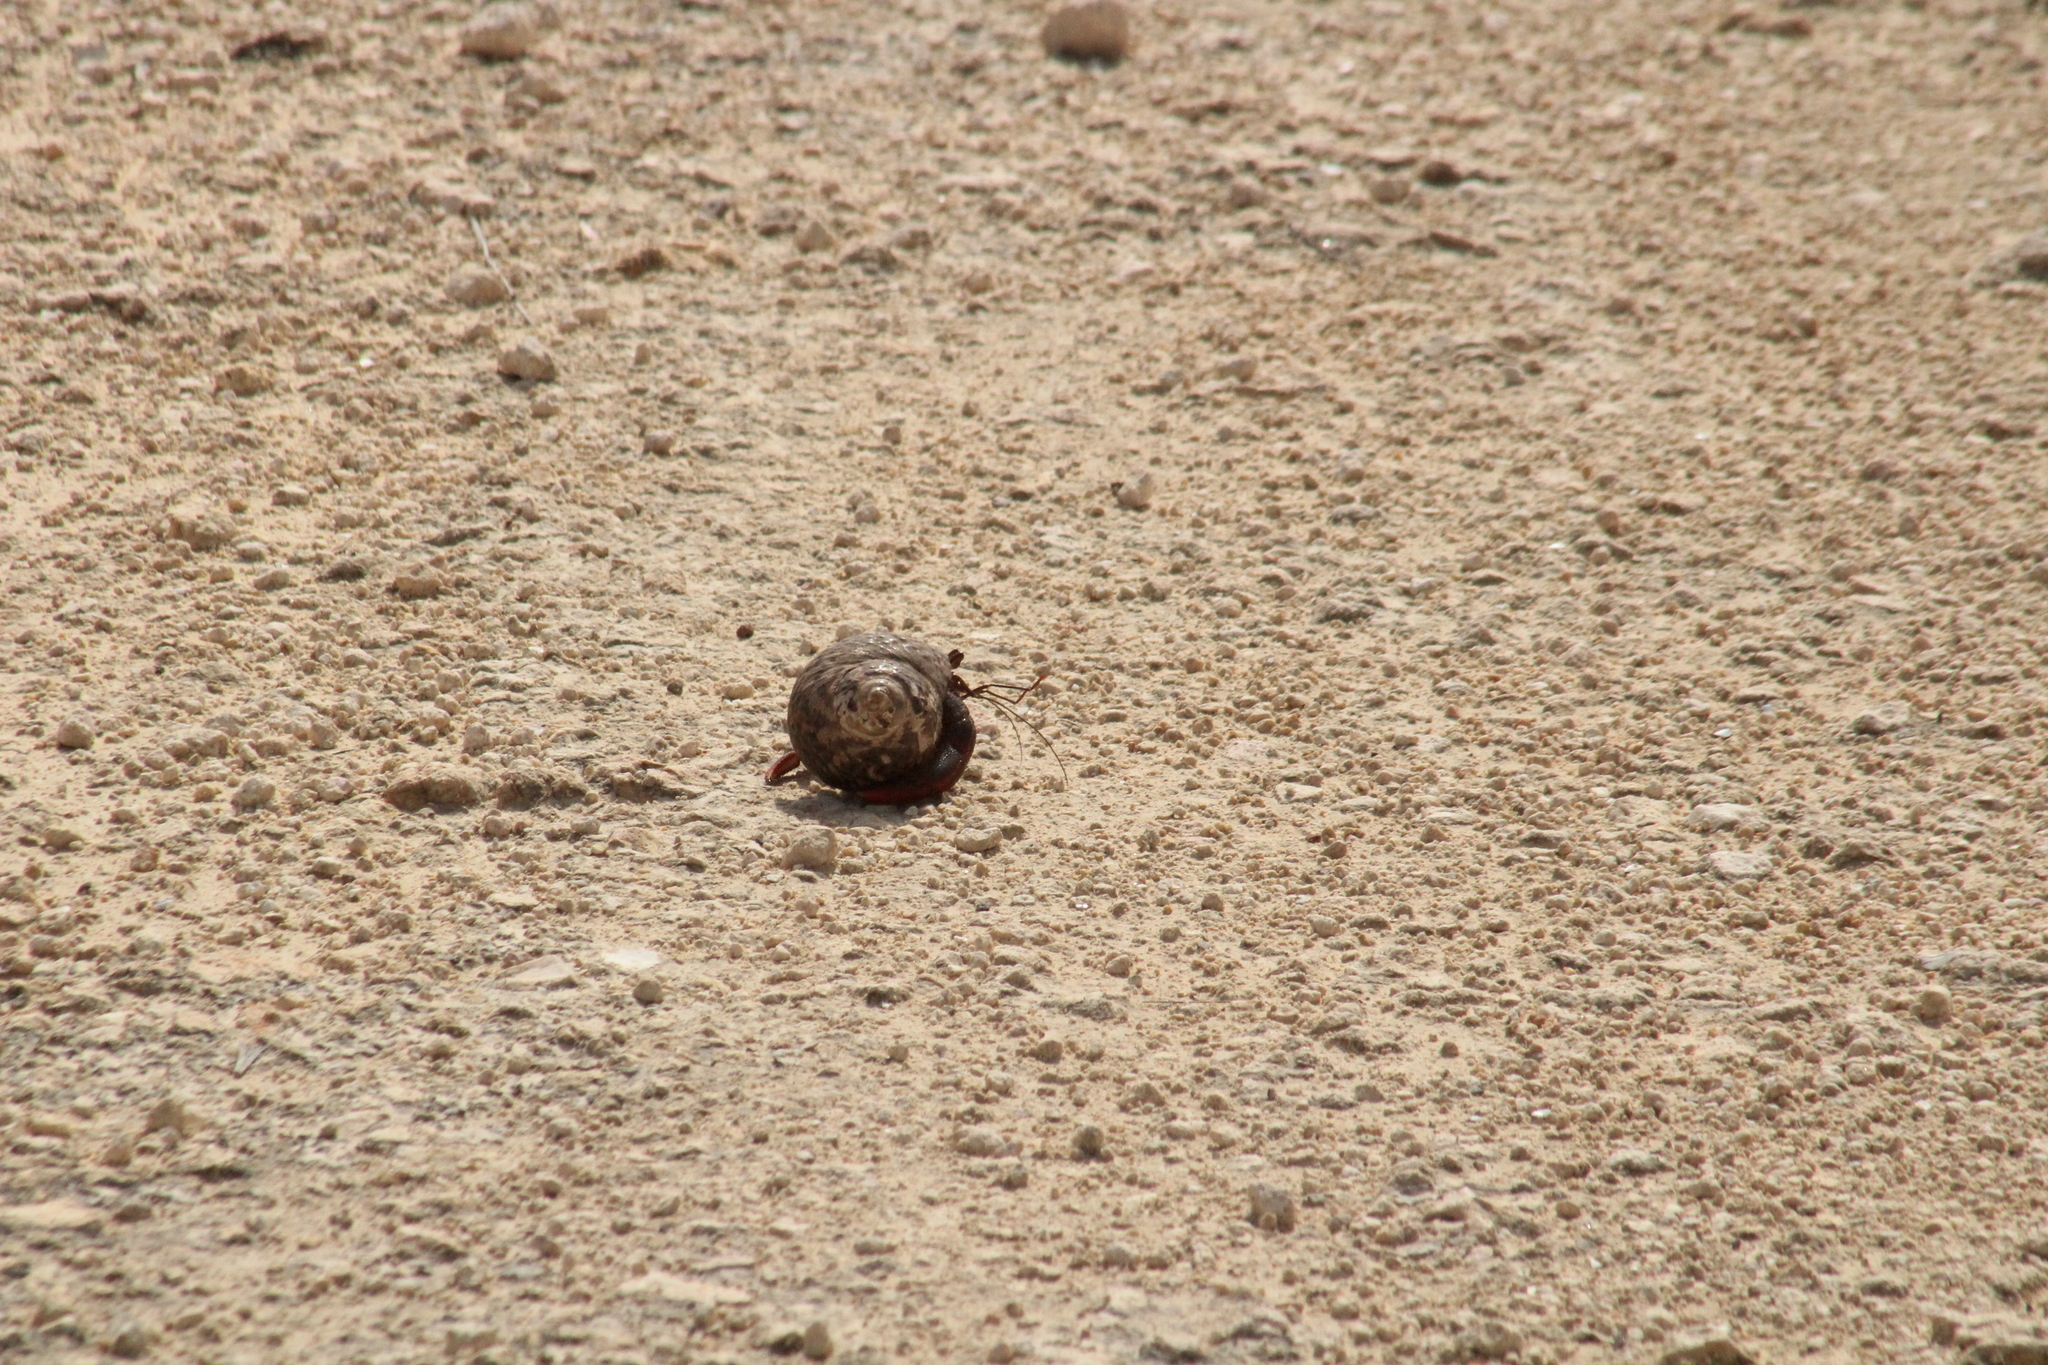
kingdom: Animalia
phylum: Arthropoda
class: Malacostraca
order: Decapoda
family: Coenobitidae
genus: Coenobita
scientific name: Coenobita clypeatus
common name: Caribbean hermit crab
